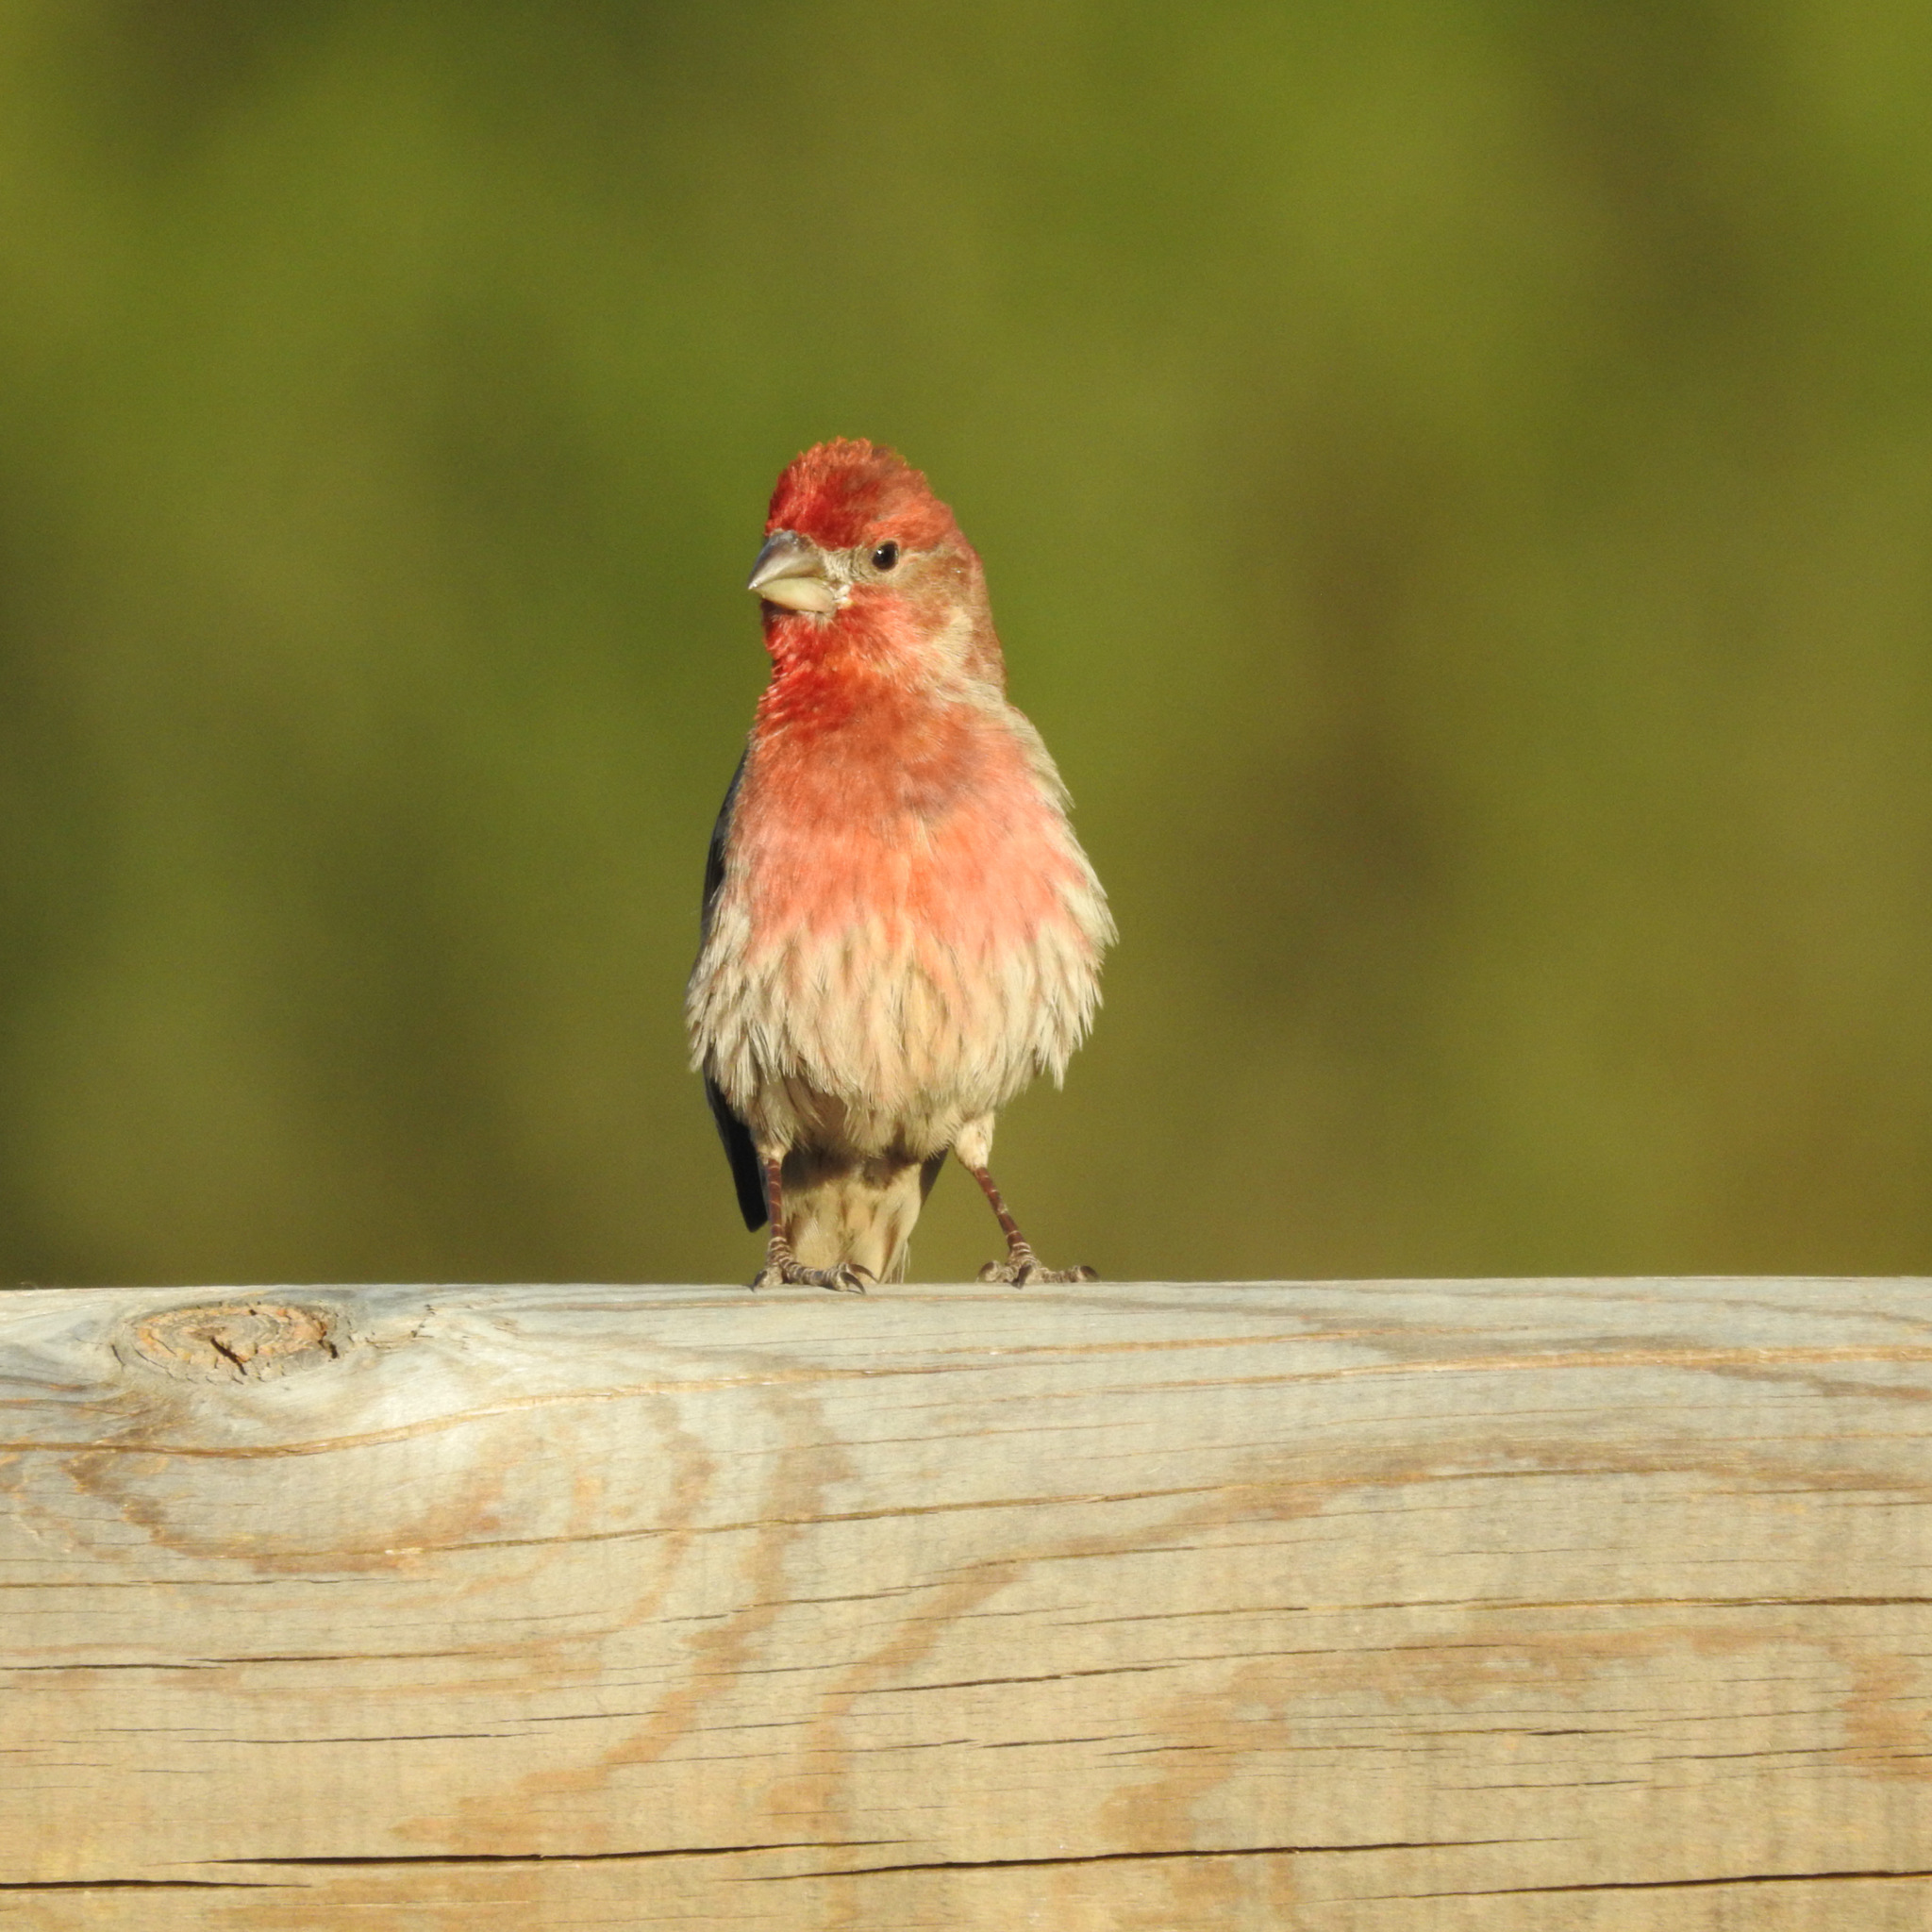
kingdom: Animalia
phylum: Chordata
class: Aves
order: Passeriformes
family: Fringillidae
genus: Haemorhous
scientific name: Haemorhous mexicanus
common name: House finch
